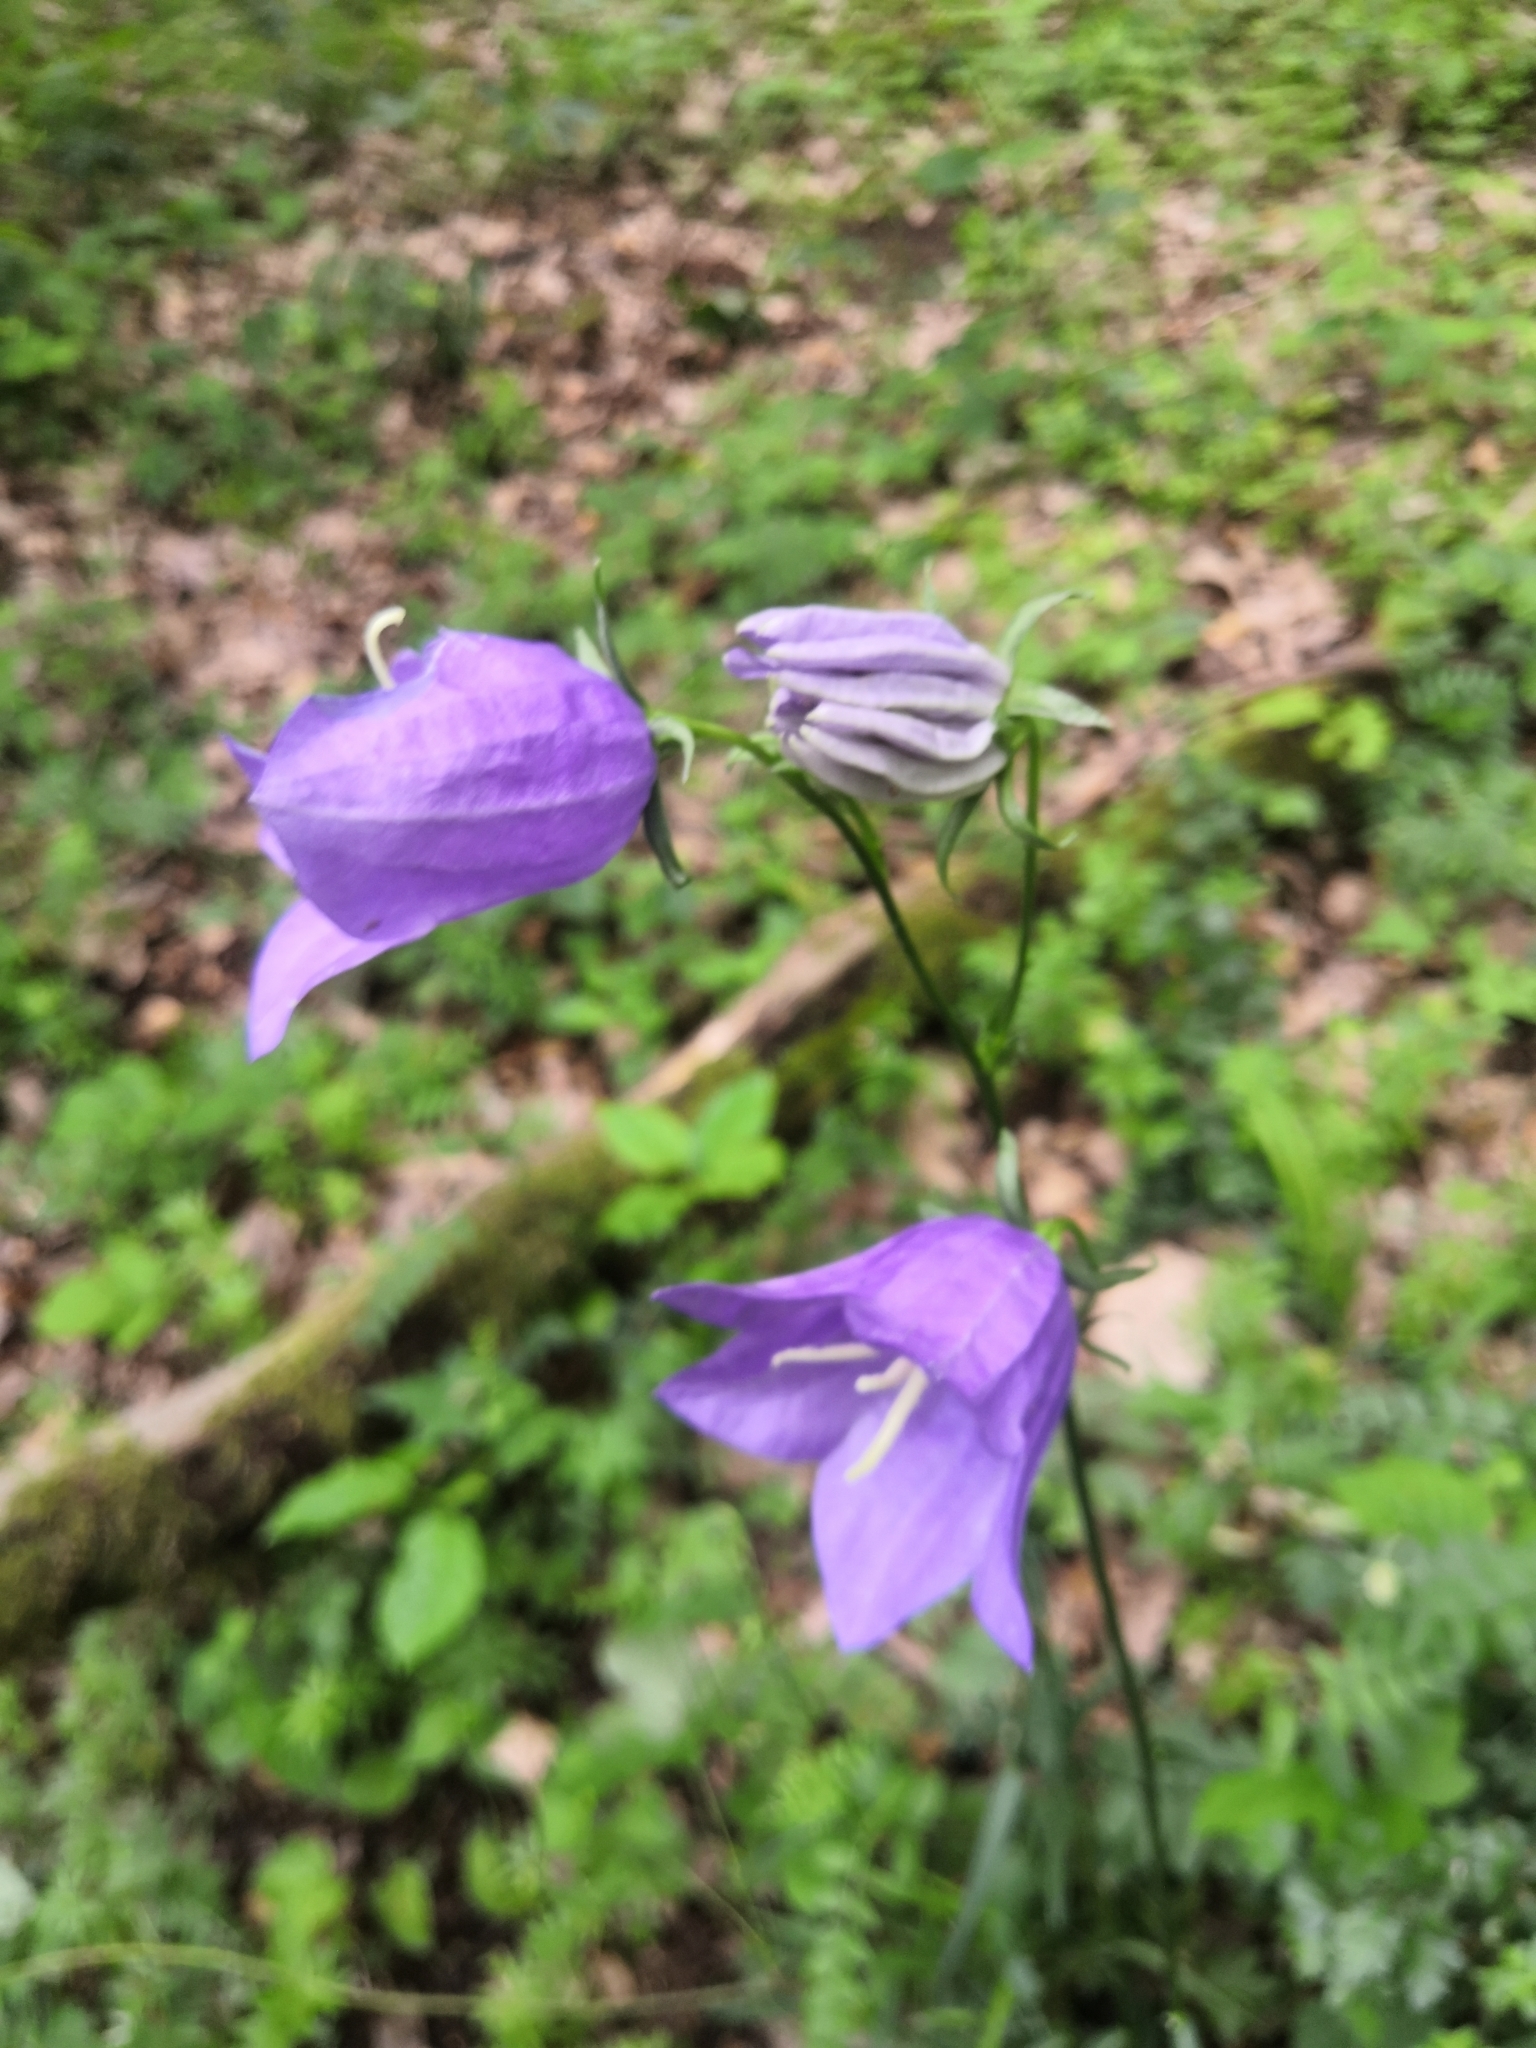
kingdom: Plantae
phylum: Tracheophyta
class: Magnoliopsida
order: Asterales
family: Campanulaceae
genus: Campanula
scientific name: Campanula persicifolia
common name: Peach-leaved bellflower
